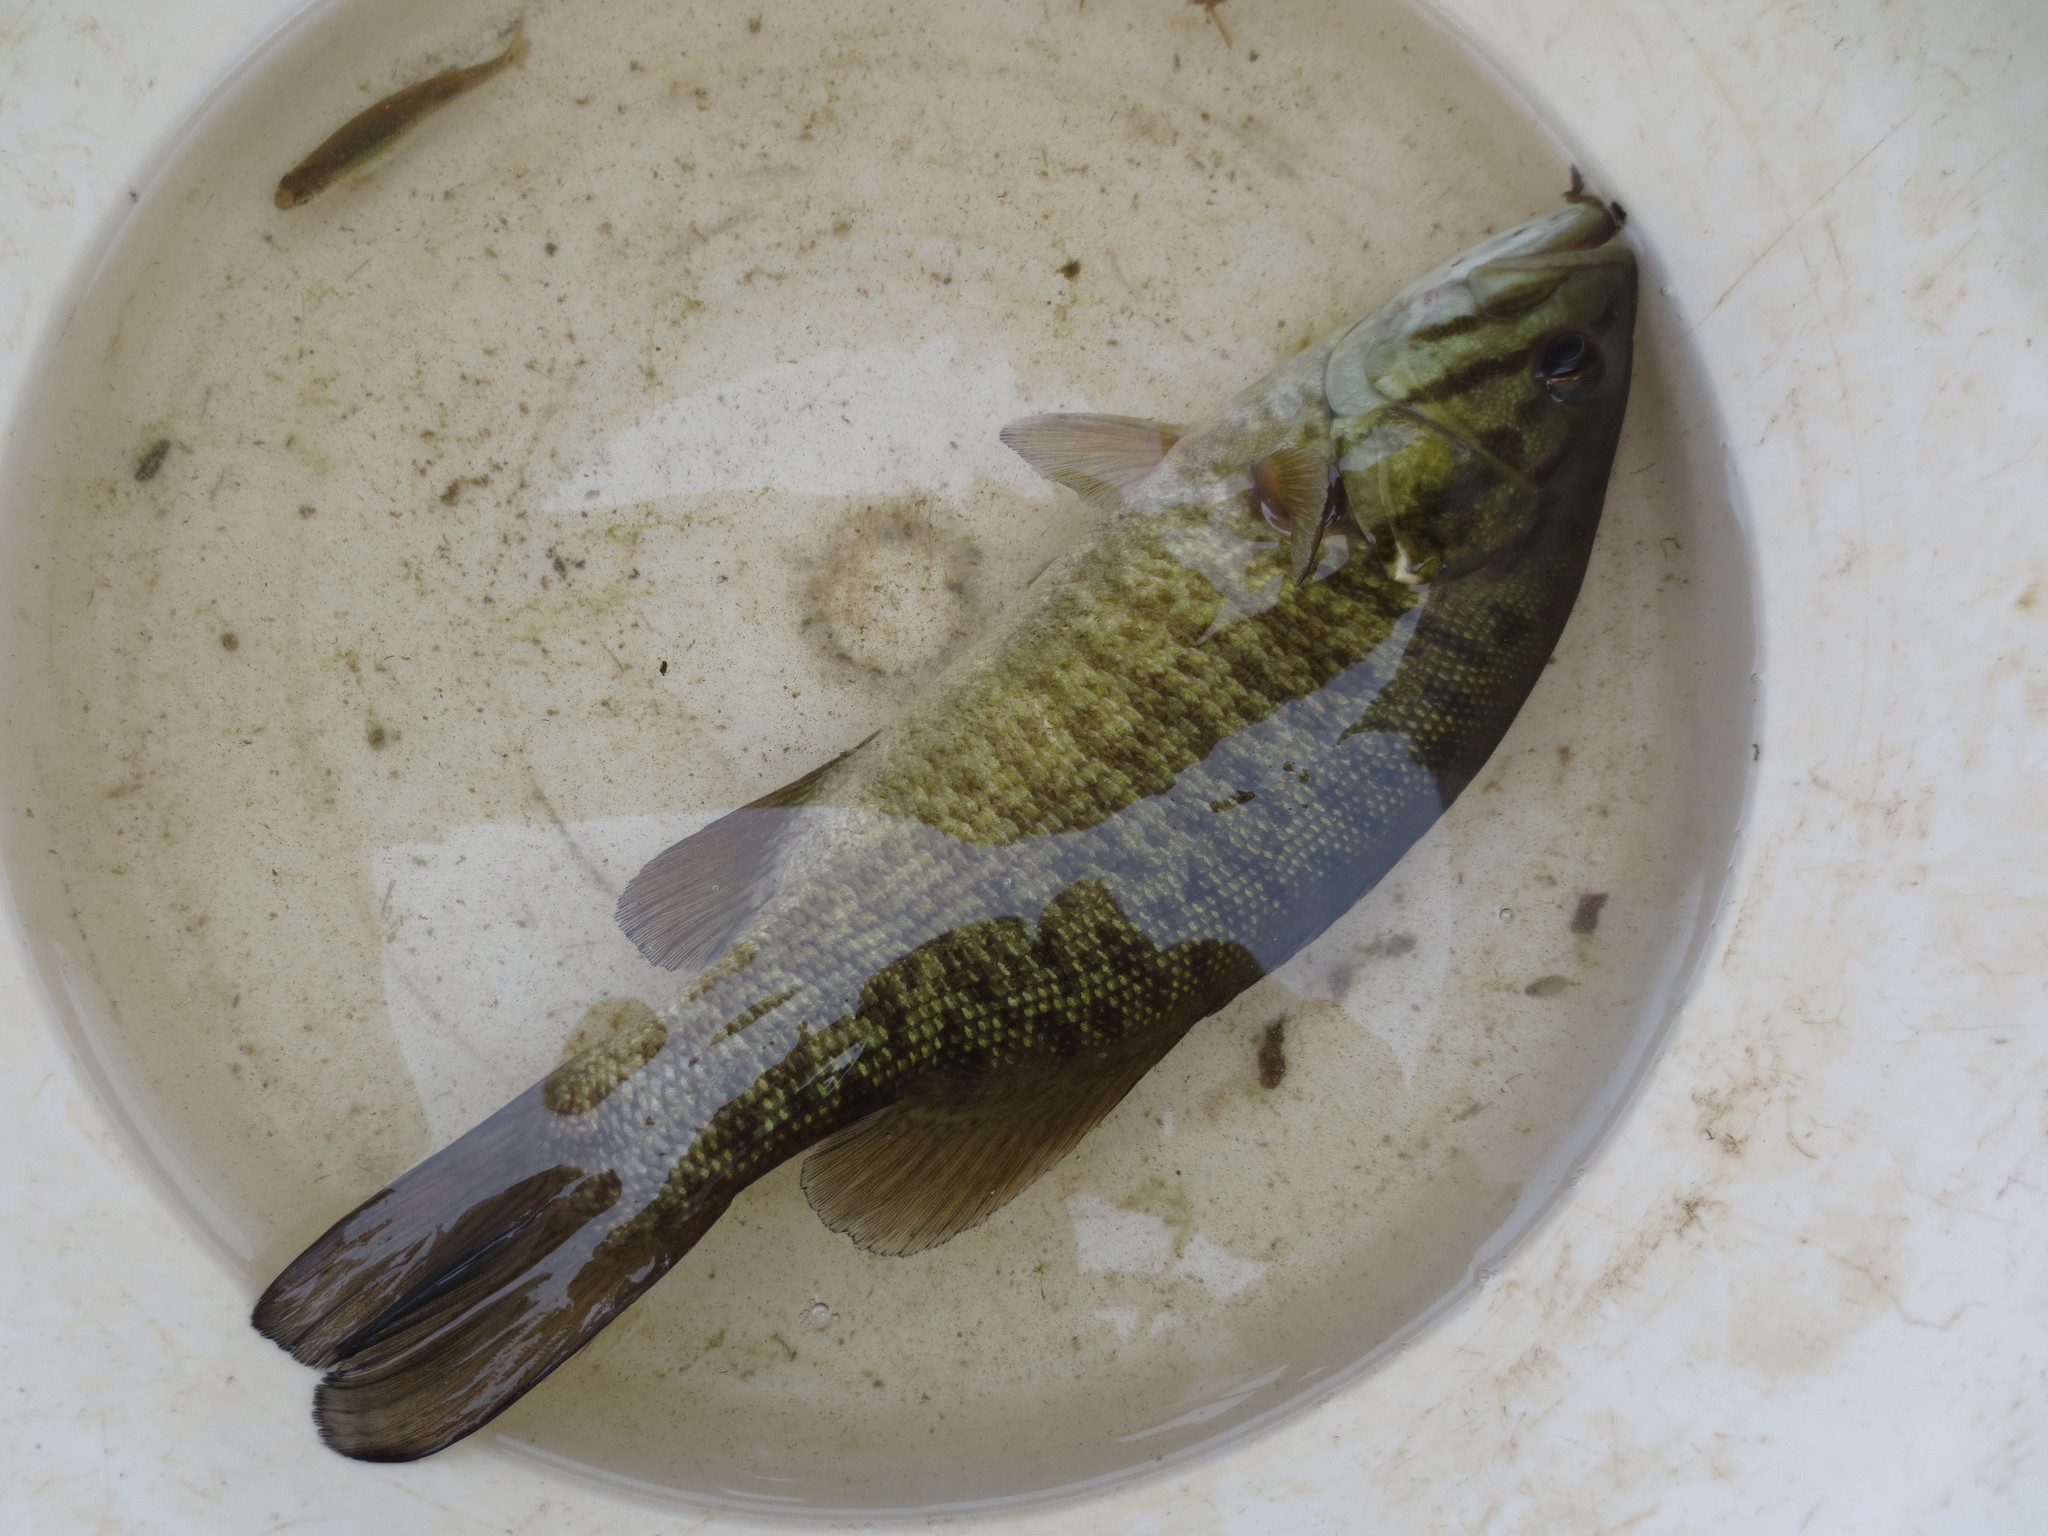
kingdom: Animalia
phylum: Chordata
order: Perciformes
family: Centrarchidae
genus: Micropterus
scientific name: Micropterus dolomieu
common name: Smallmouth bass
